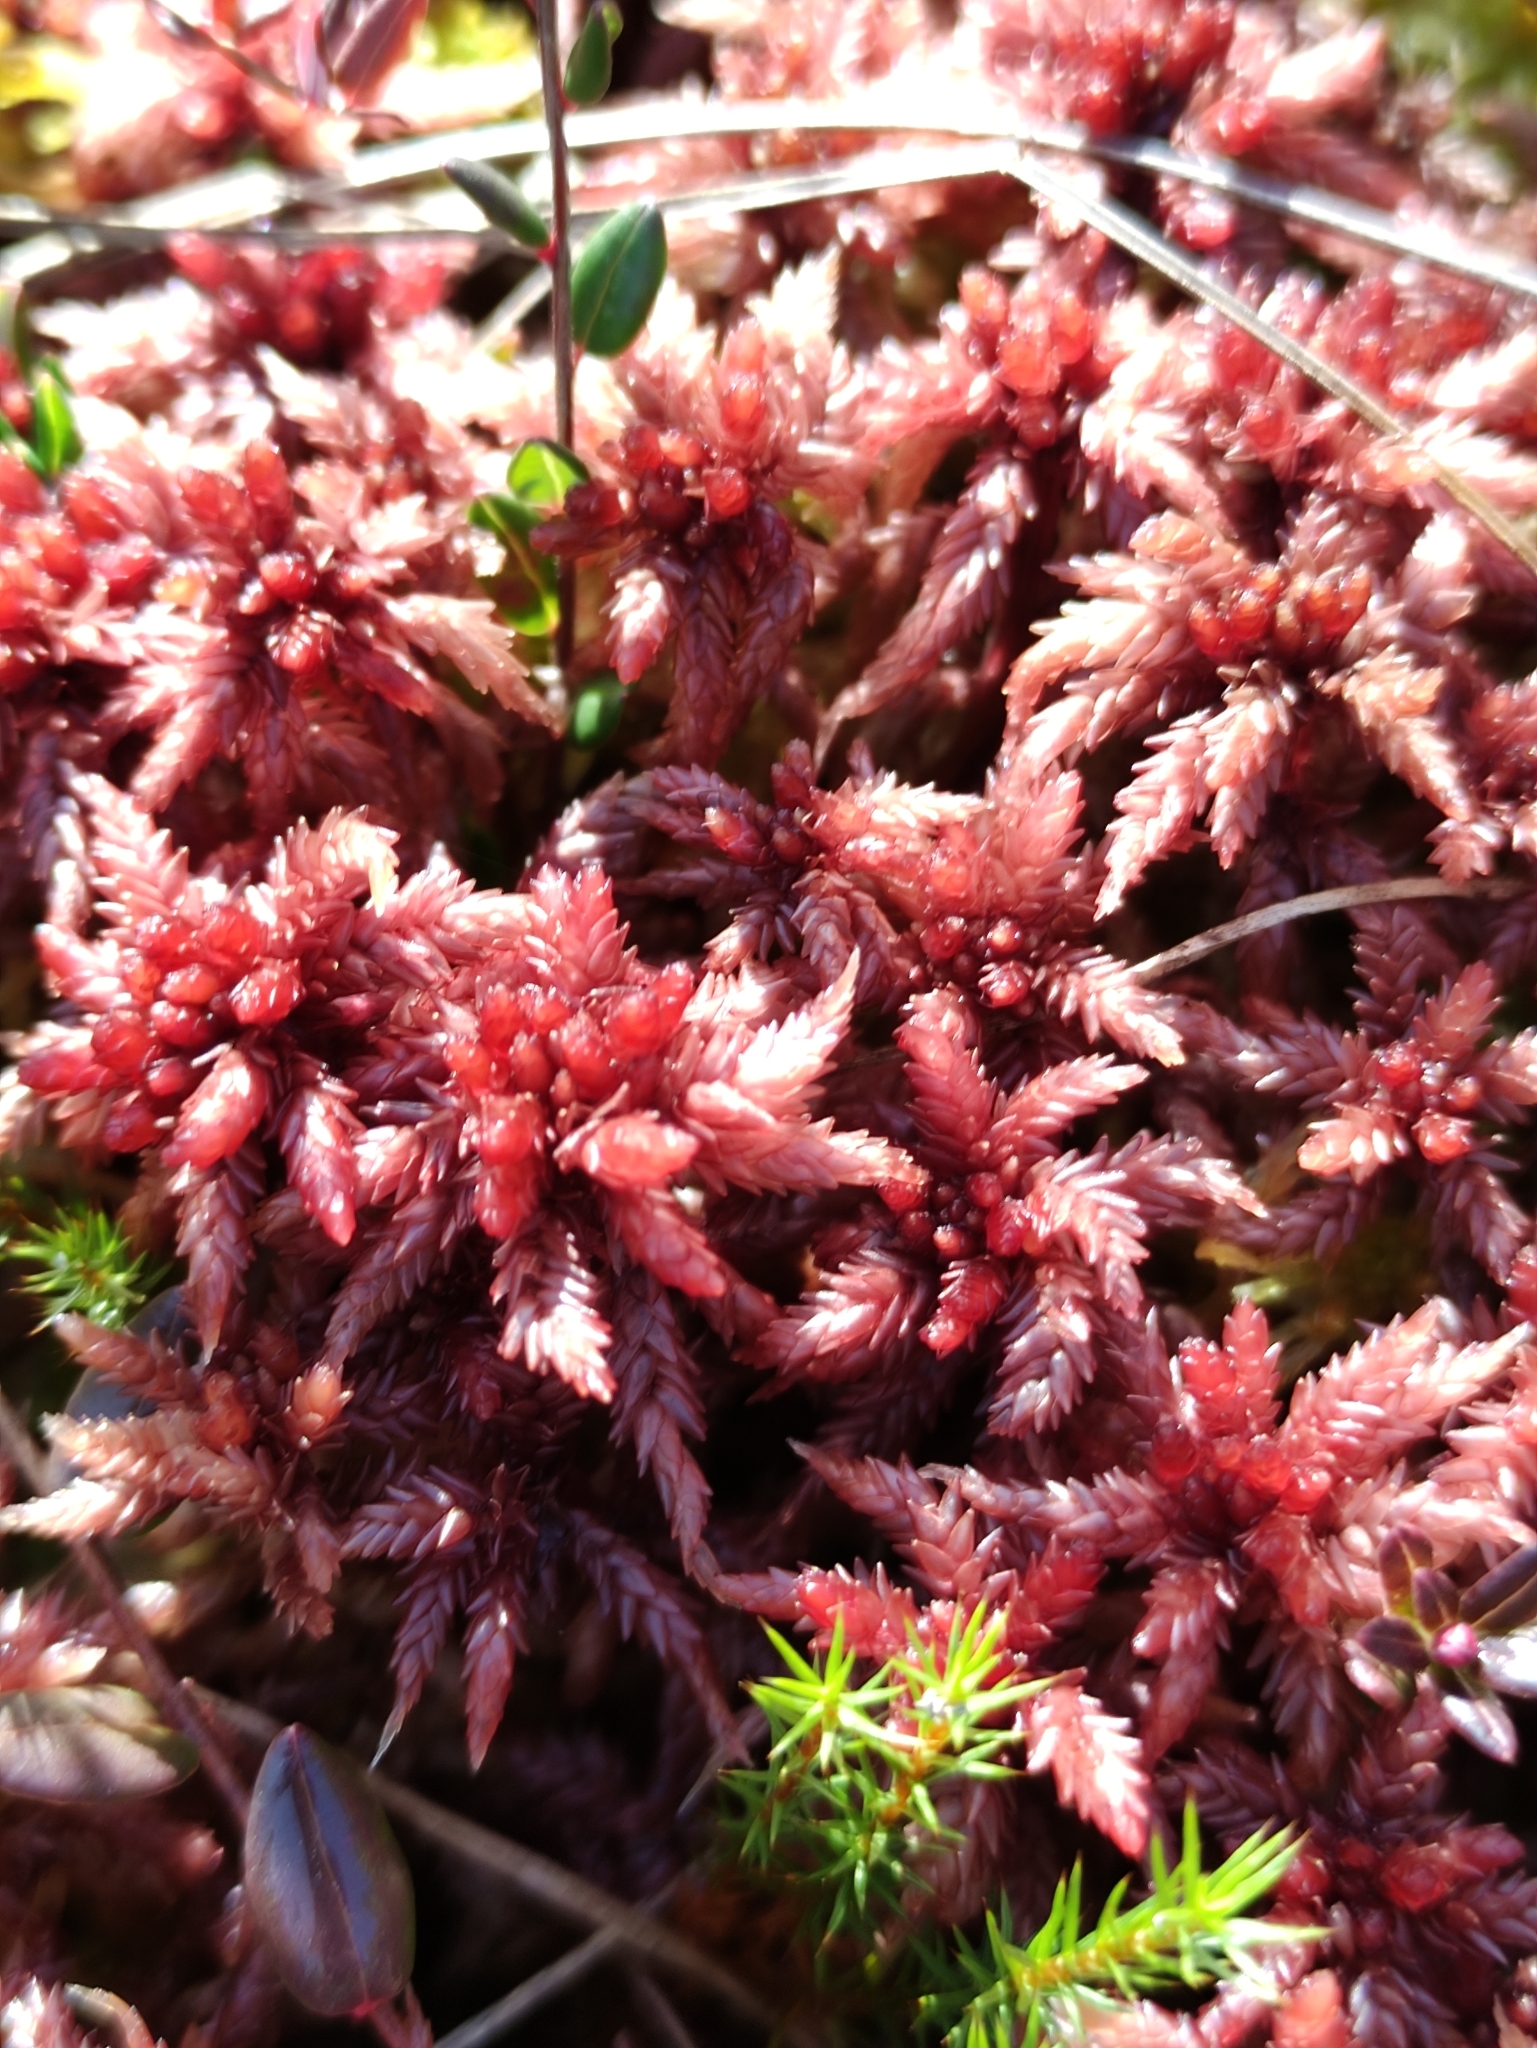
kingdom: Plantae
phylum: Bryophyta
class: Sphagnopsida
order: Sphagnales
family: Sphagnaceae
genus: Sphagnum
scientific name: Sphagnum divinum
